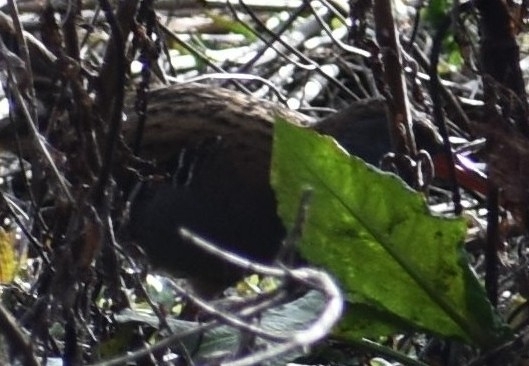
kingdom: Animalia
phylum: Chordata
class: Aves
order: Gruiformes
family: Rallidae
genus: Rallus
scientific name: Rallus aquaticus
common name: Water rail
